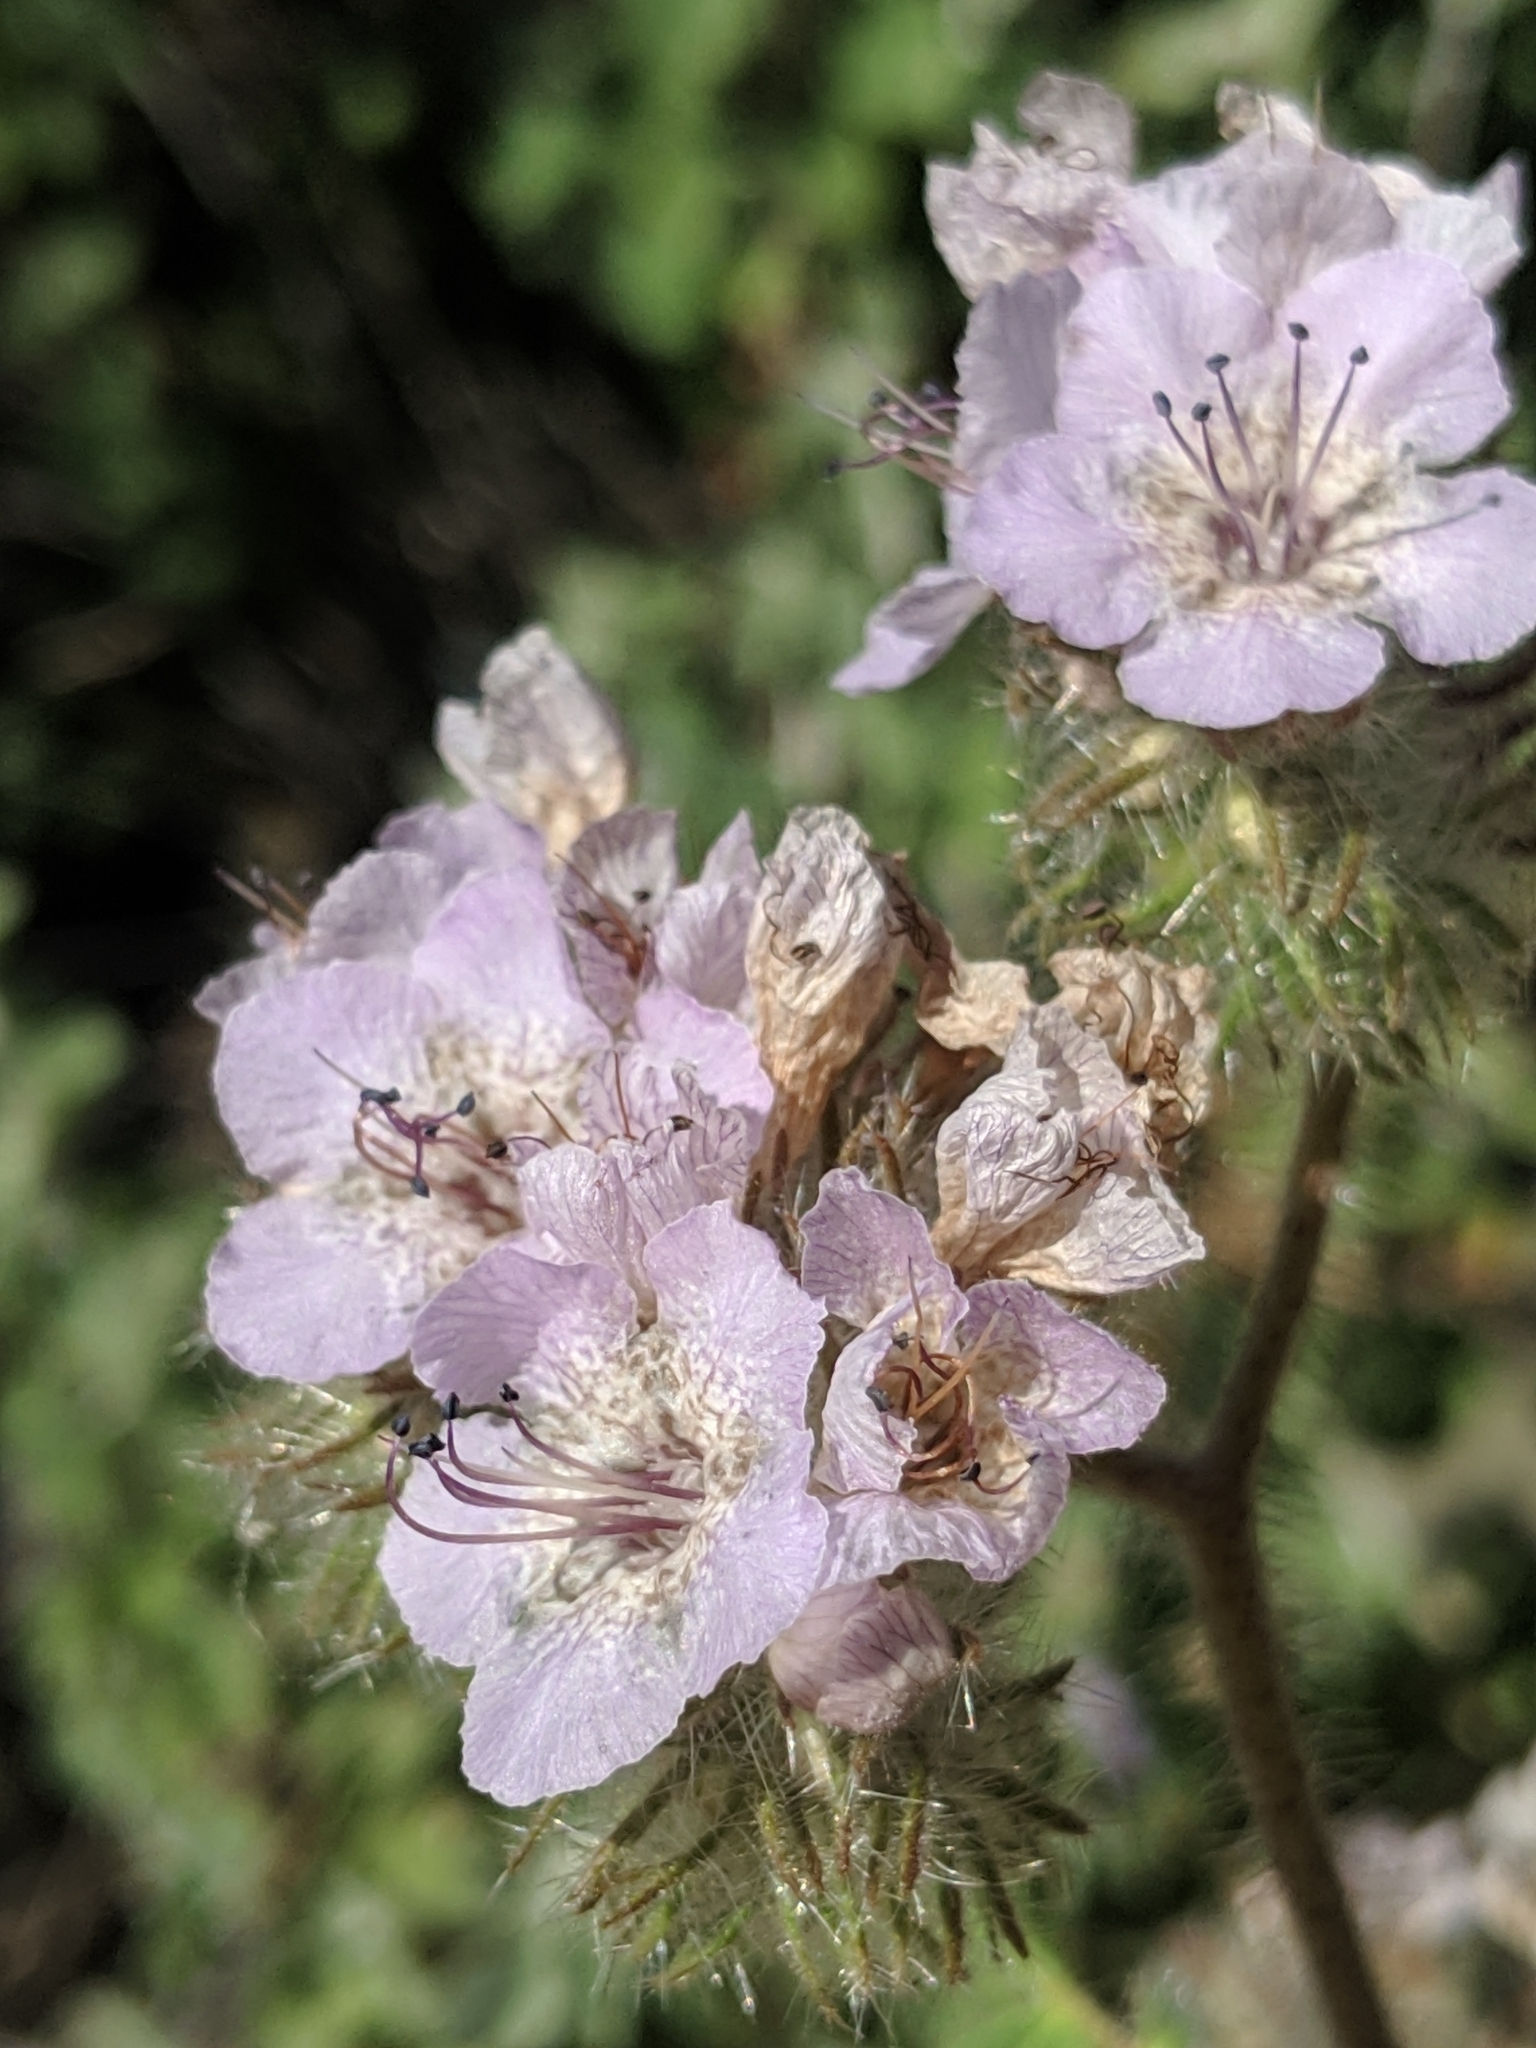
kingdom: Plantae
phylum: Tracheophyta
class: Magnoliopsida
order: Boraginales
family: Hydrophyllaceae
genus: Phacelia
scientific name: Phacelia cicutaria
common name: Caterpillar phacelia
